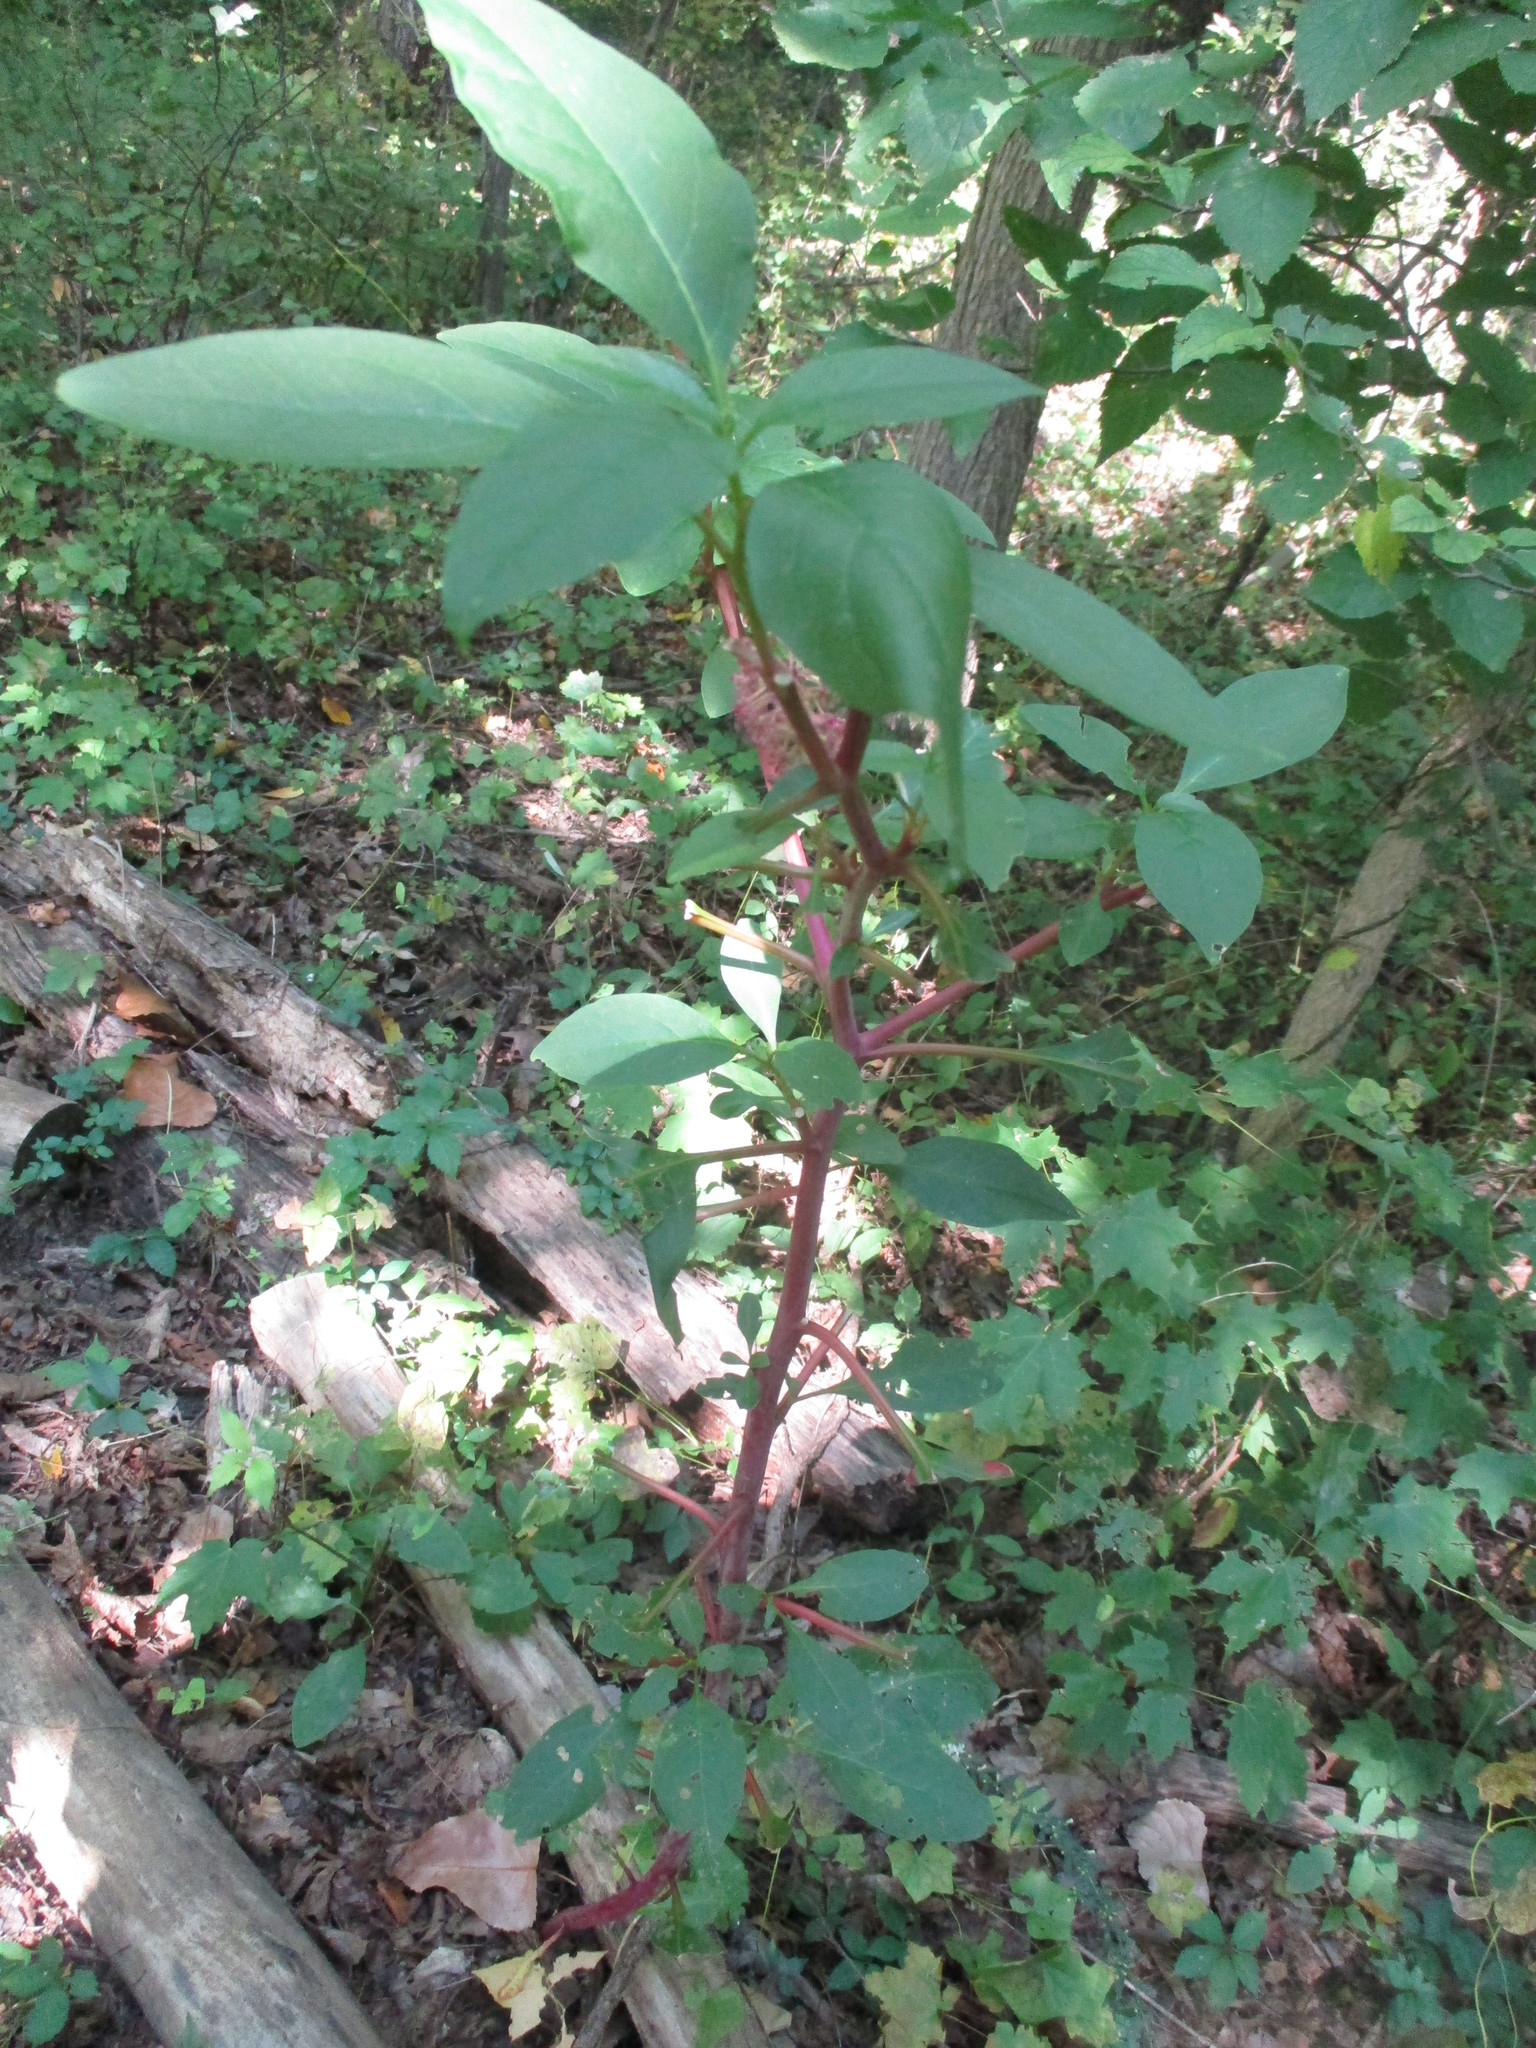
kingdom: Plantae
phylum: Tracheophyta
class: Magnoliopsida
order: Caryophyllales
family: Phytolaccaceae
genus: Phytolacca
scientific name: Phytolacca americana
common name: American pokeweed
